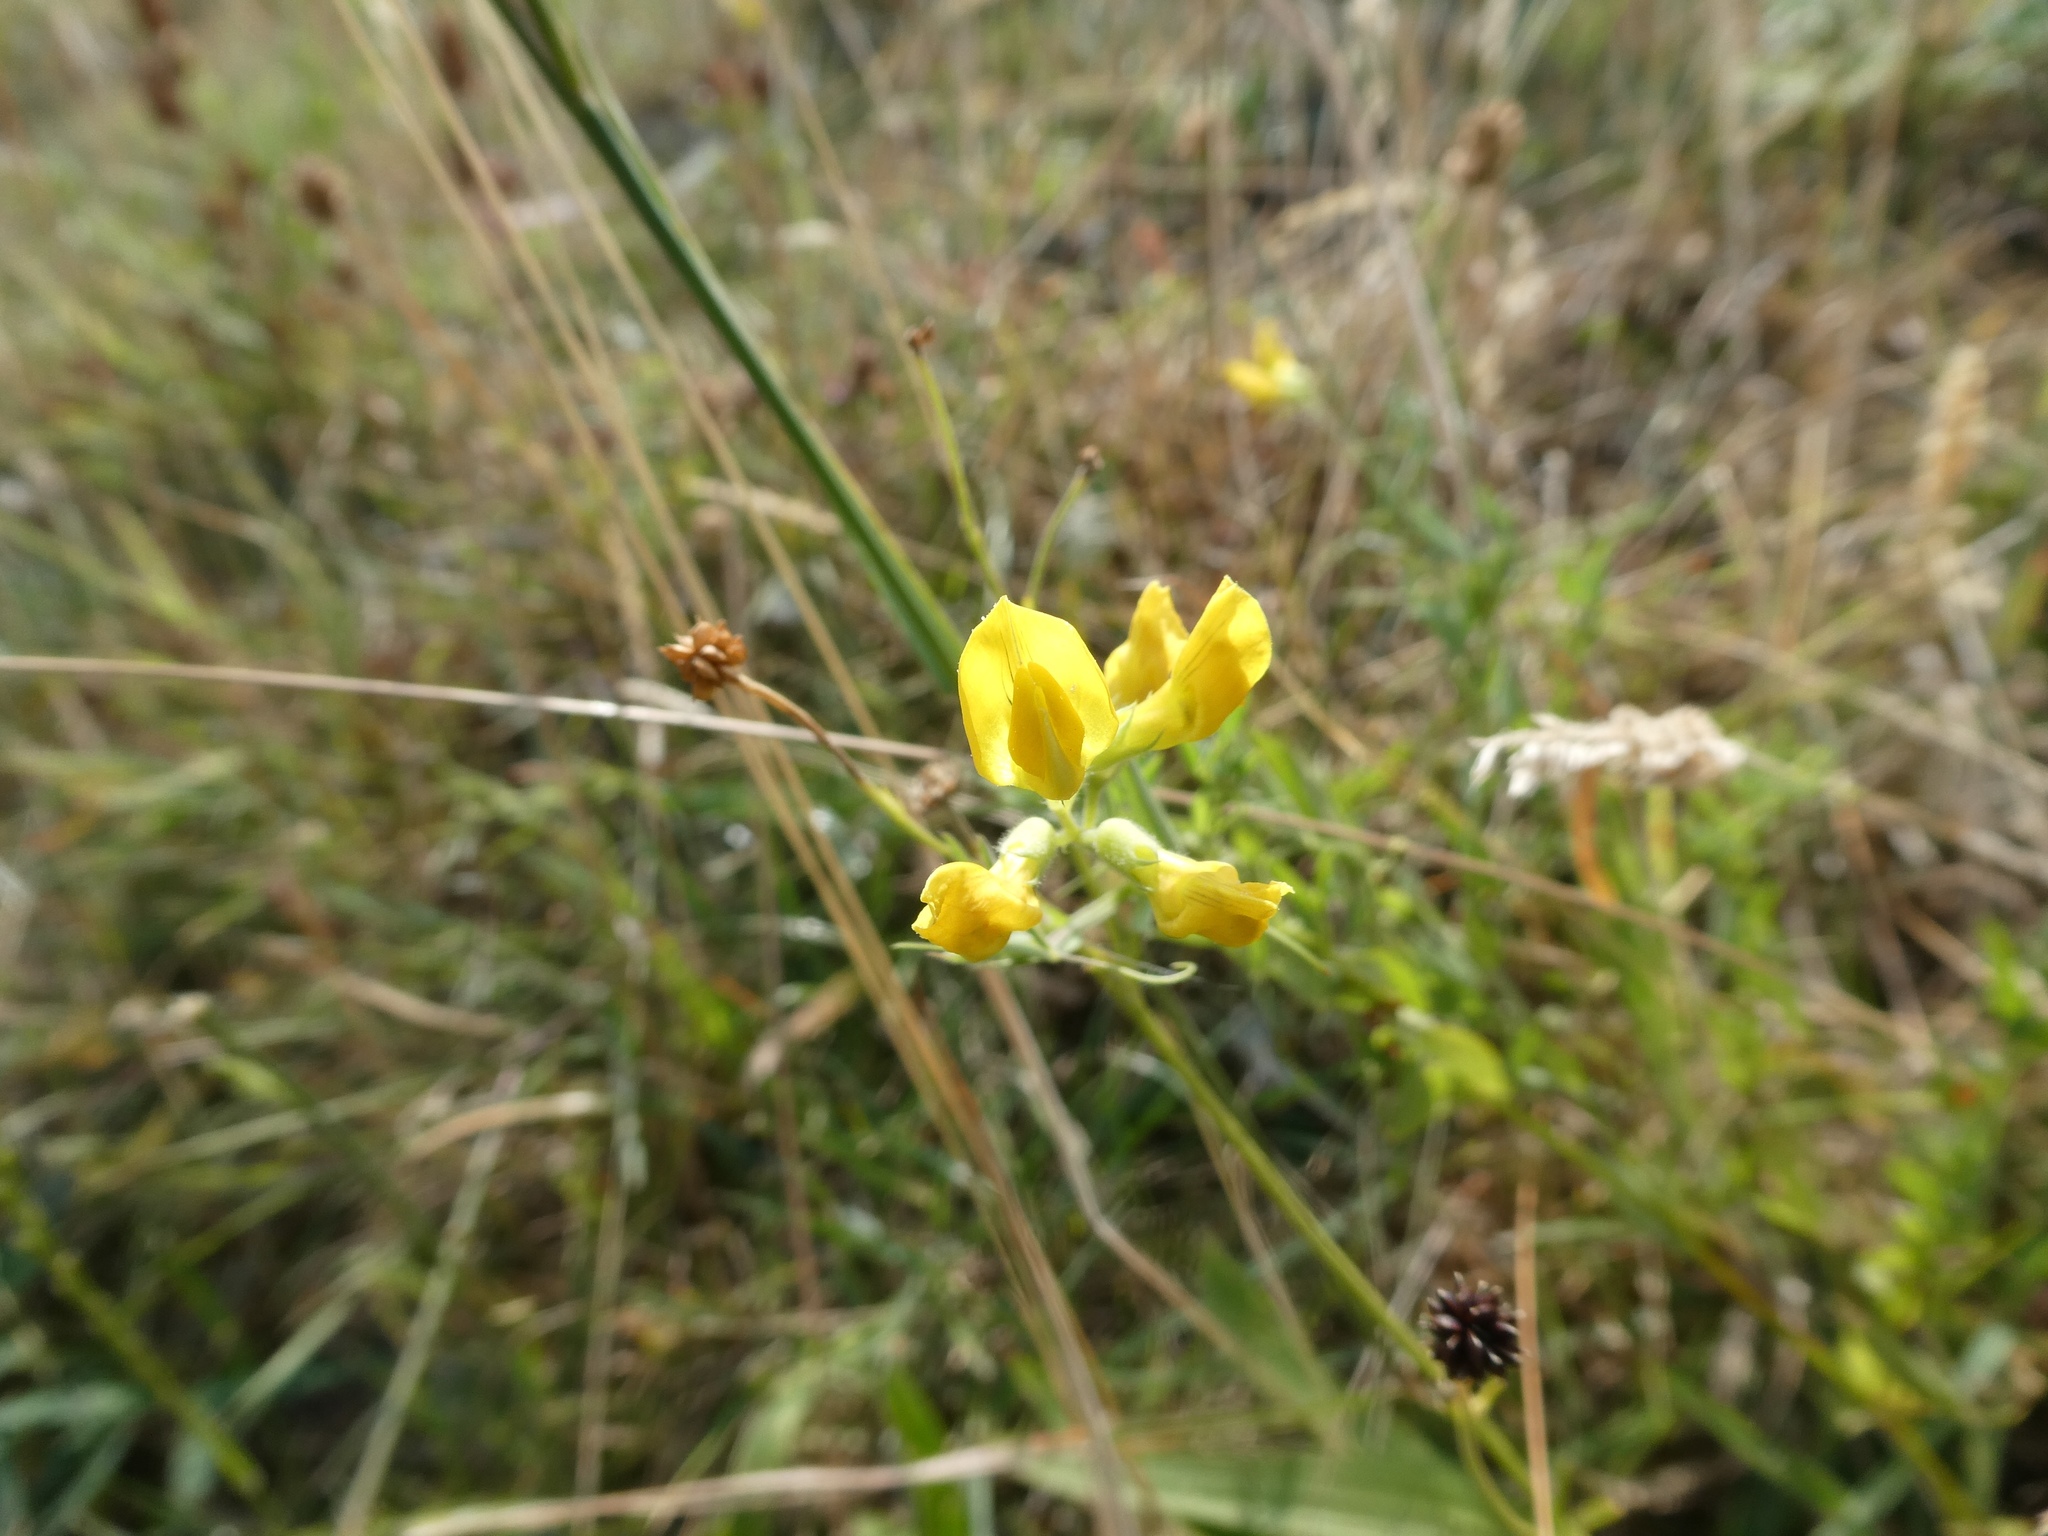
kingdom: Plantae
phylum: Tracheophyta
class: Magnoliopsida
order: Fabales
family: Fabaceae
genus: Lathyrus
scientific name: Lathyrus pratensis
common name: Meadow vetchling
